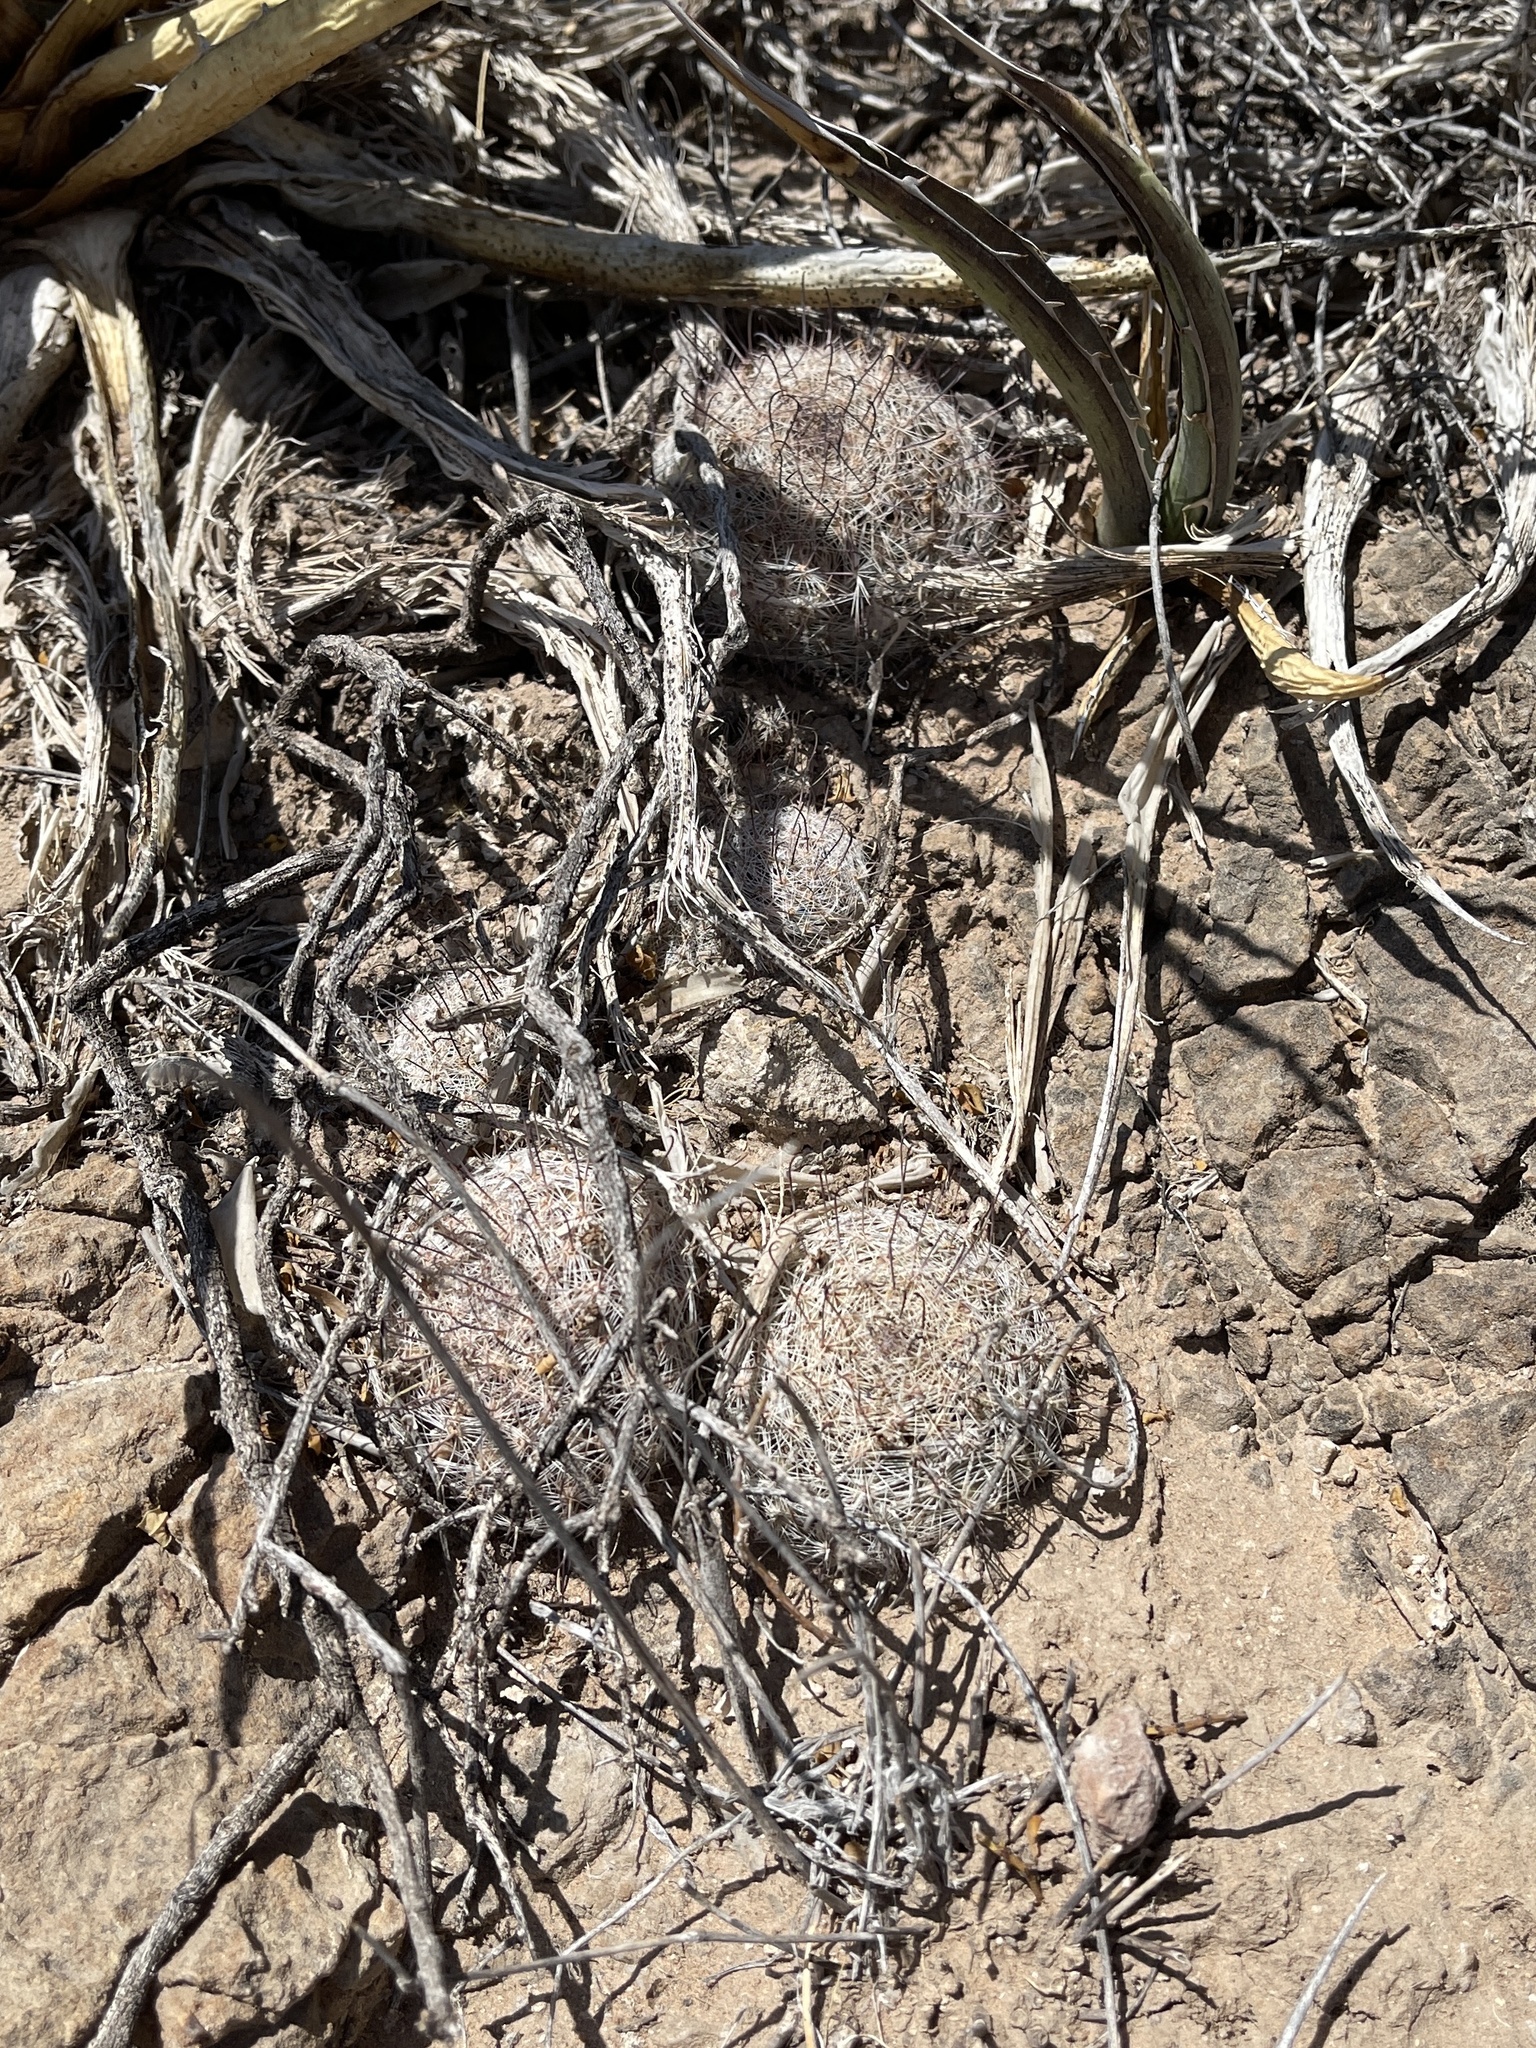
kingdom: Plantae
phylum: Tracheophyta
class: Magnoliopsida
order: Caryophyllales
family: Cactaceae
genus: Cochemiea
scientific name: Cochemiea grahamii
